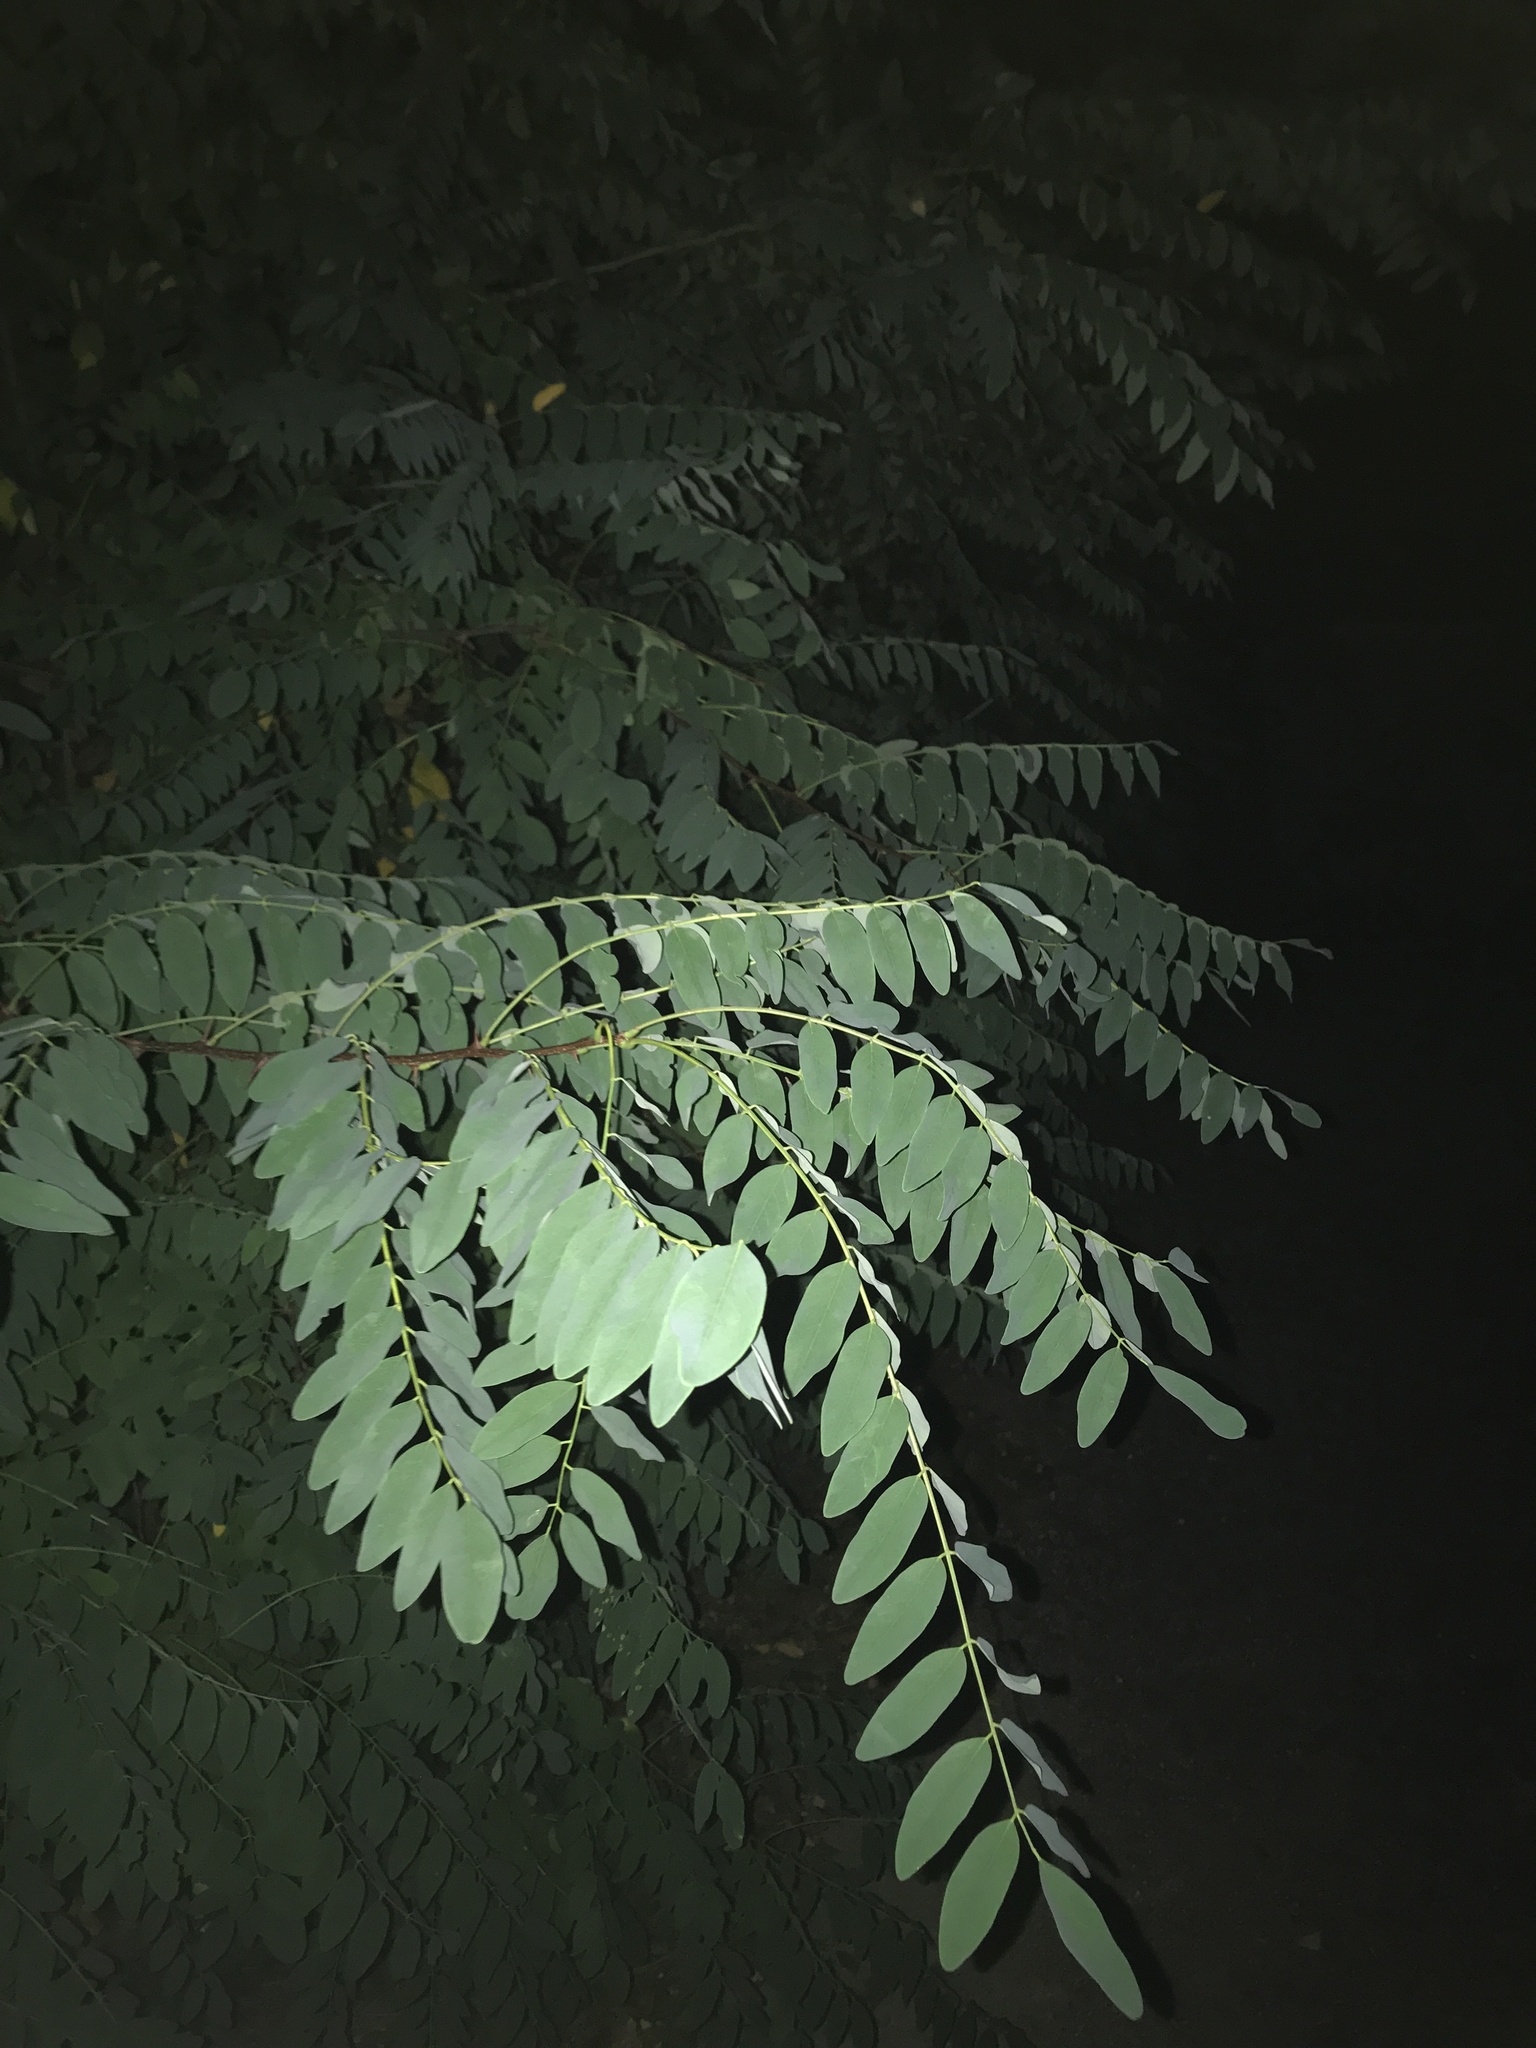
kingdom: Plantae
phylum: Tracheophyta
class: Magnoliopsida
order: Fabales
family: Fabaceae
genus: Robinia
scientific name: Robinia pseudoacacia
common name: Black locust
